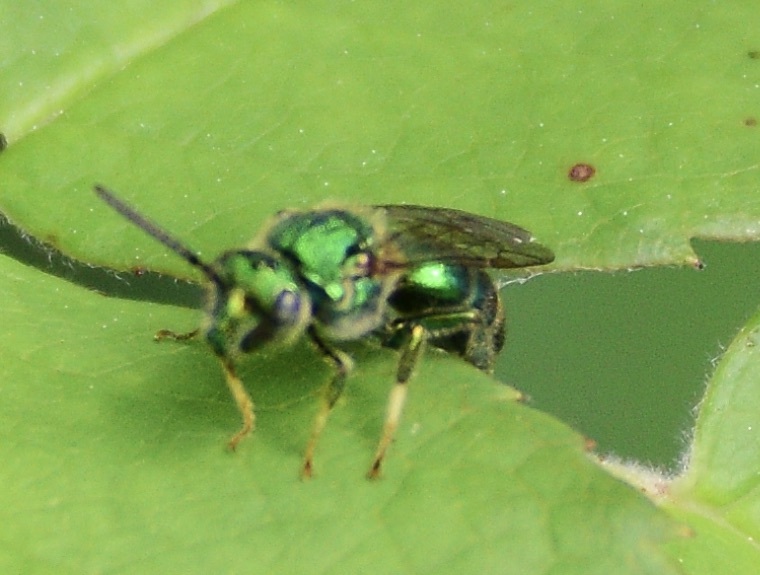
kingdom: Animalia
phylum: Arthropoda
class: Insecta
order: Hymenoptera
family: Halictidae
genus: Augochloropsis
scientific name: Augochloropsis viridula
